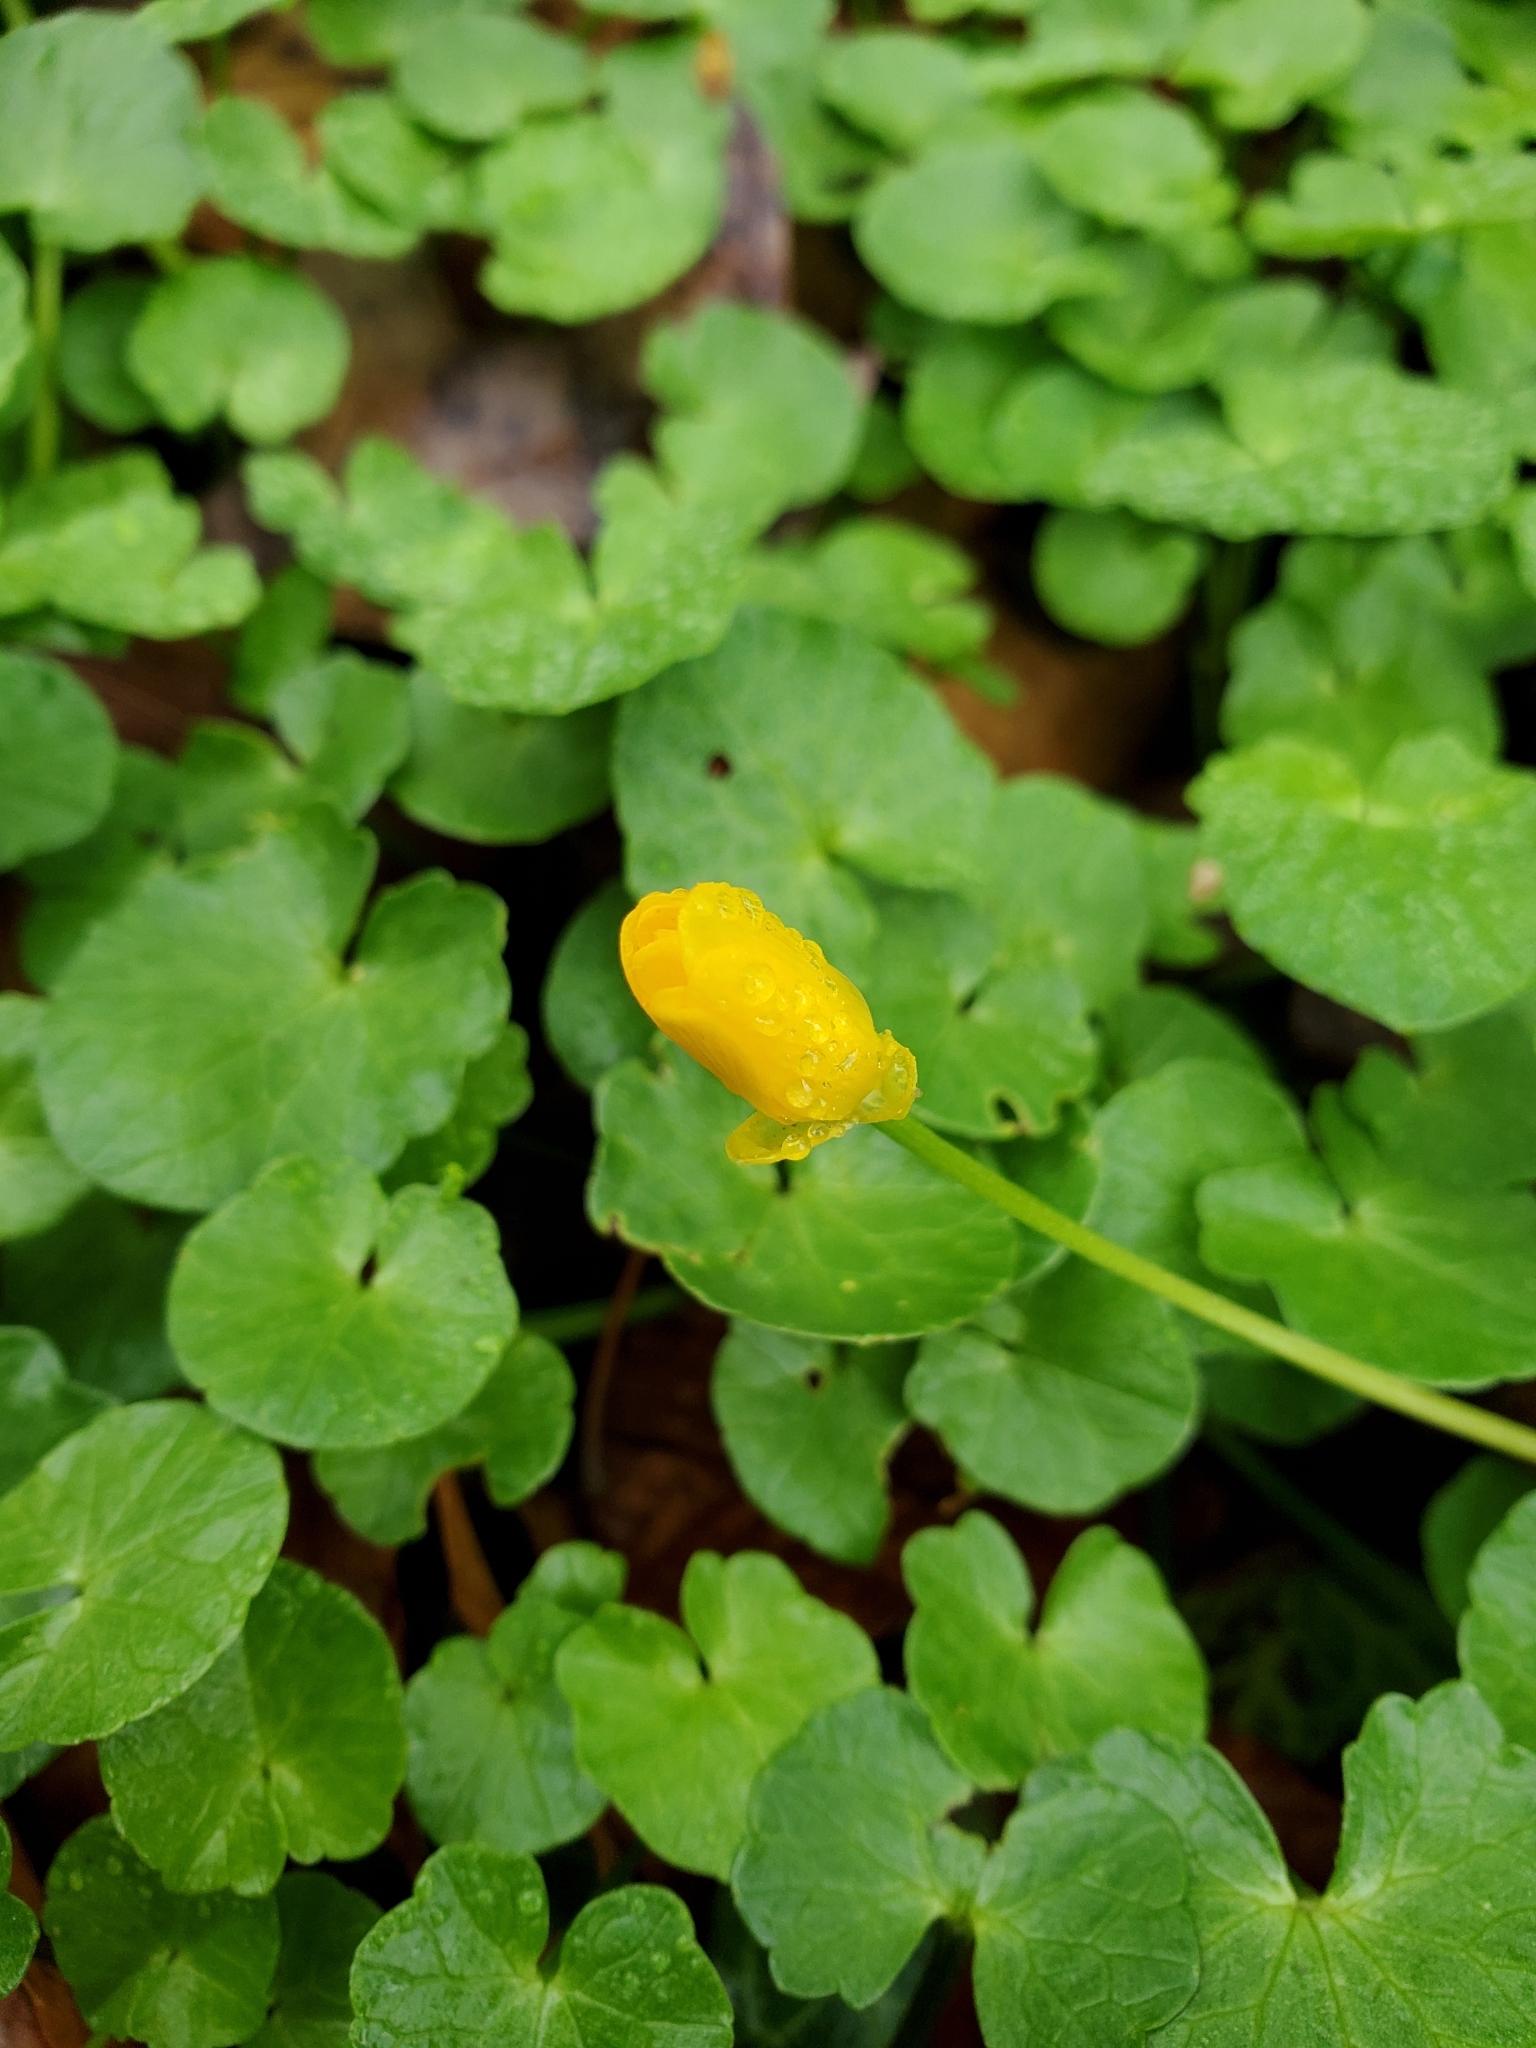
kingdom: Plantae
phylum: Tracheophyta
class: Magnoliopsida
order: Ranunculales
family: Ranunculaceae
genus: Ficaria
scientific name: Ficaria verna
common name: Lesser celandine
